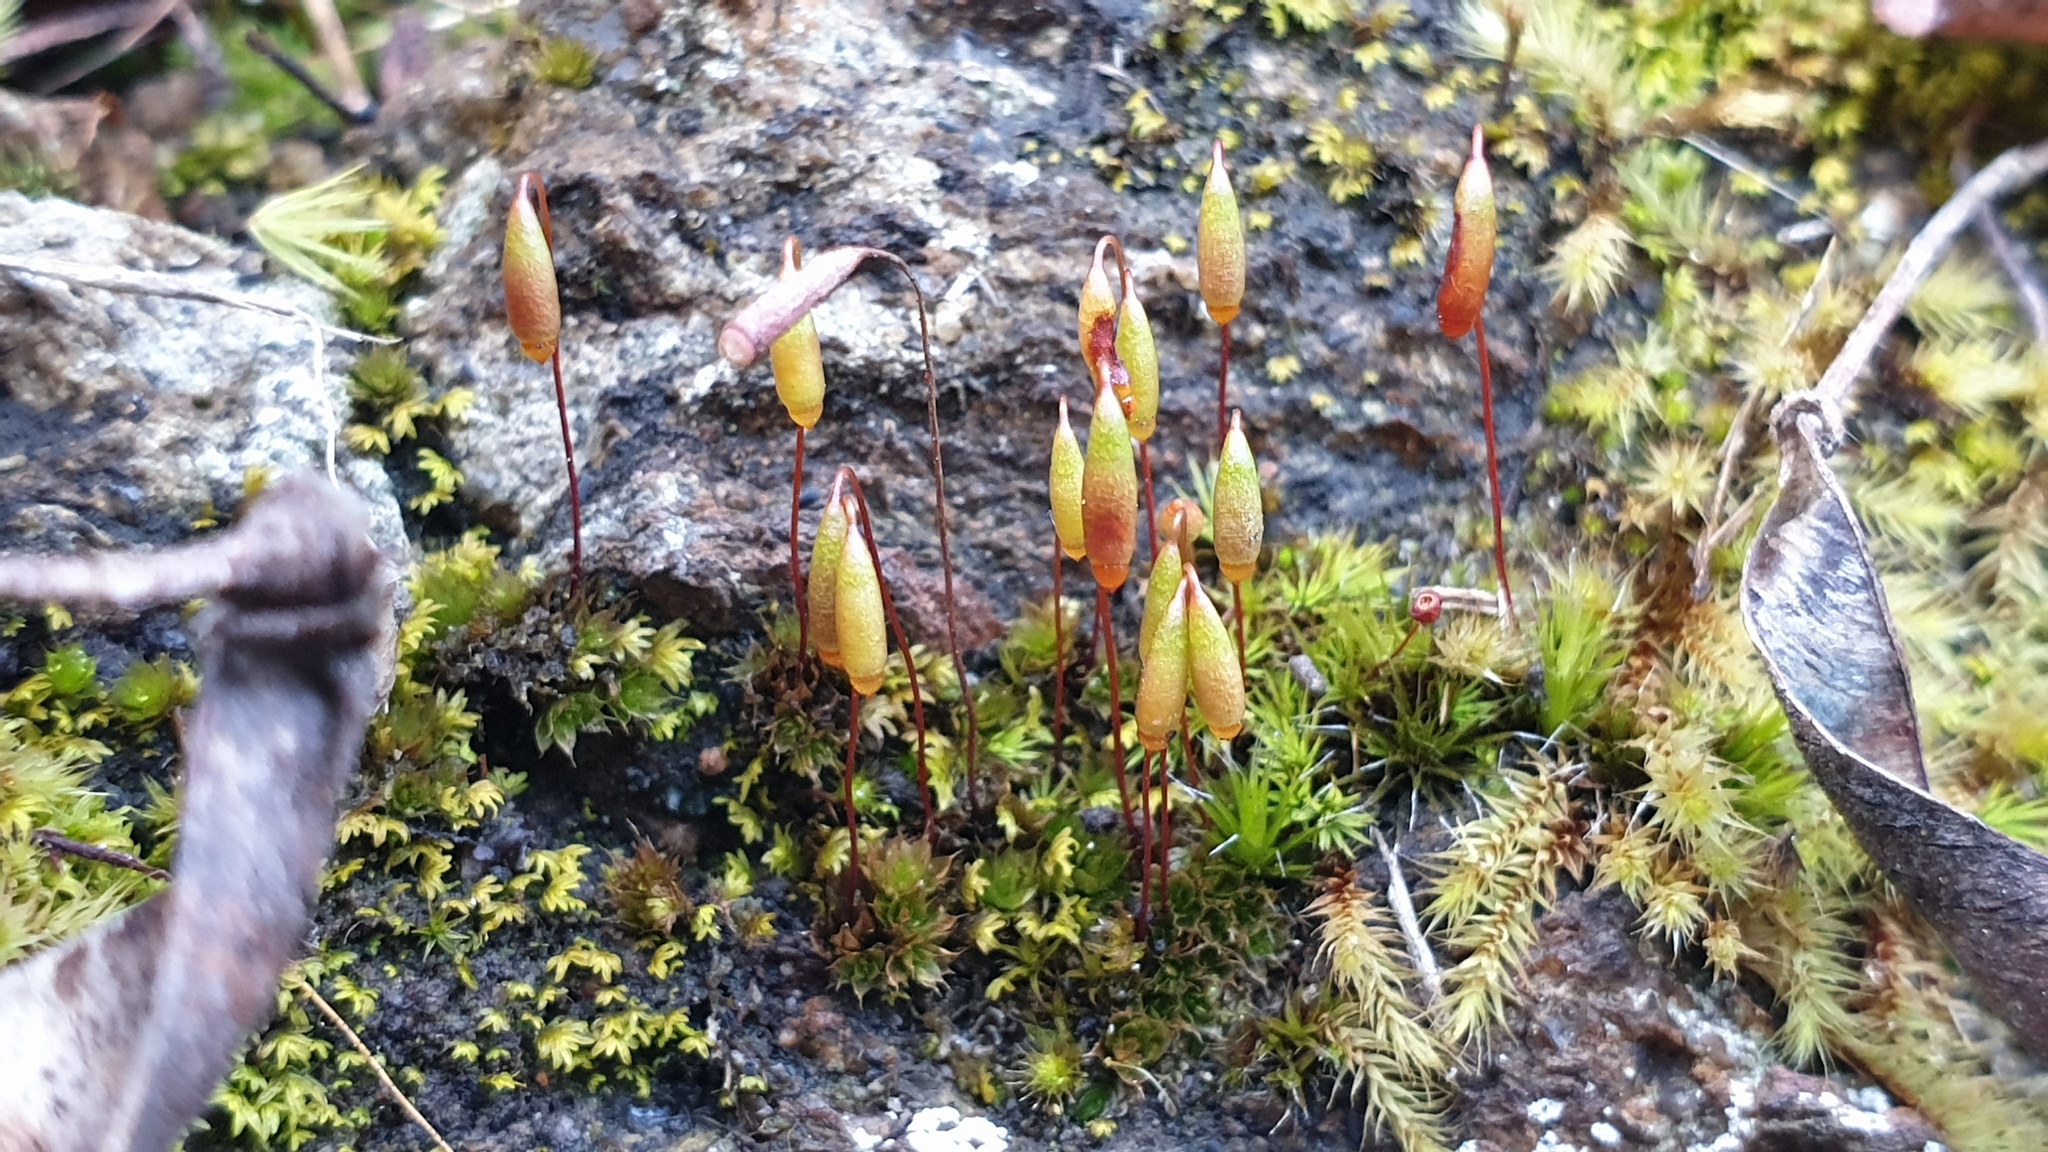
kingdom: Plantae
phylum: Bryophyta
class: Bryopsida
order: Bryales
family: Bryaceae
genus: Gemmabryum
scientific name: Gemmabryum caespiticium
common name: Handbell moss
